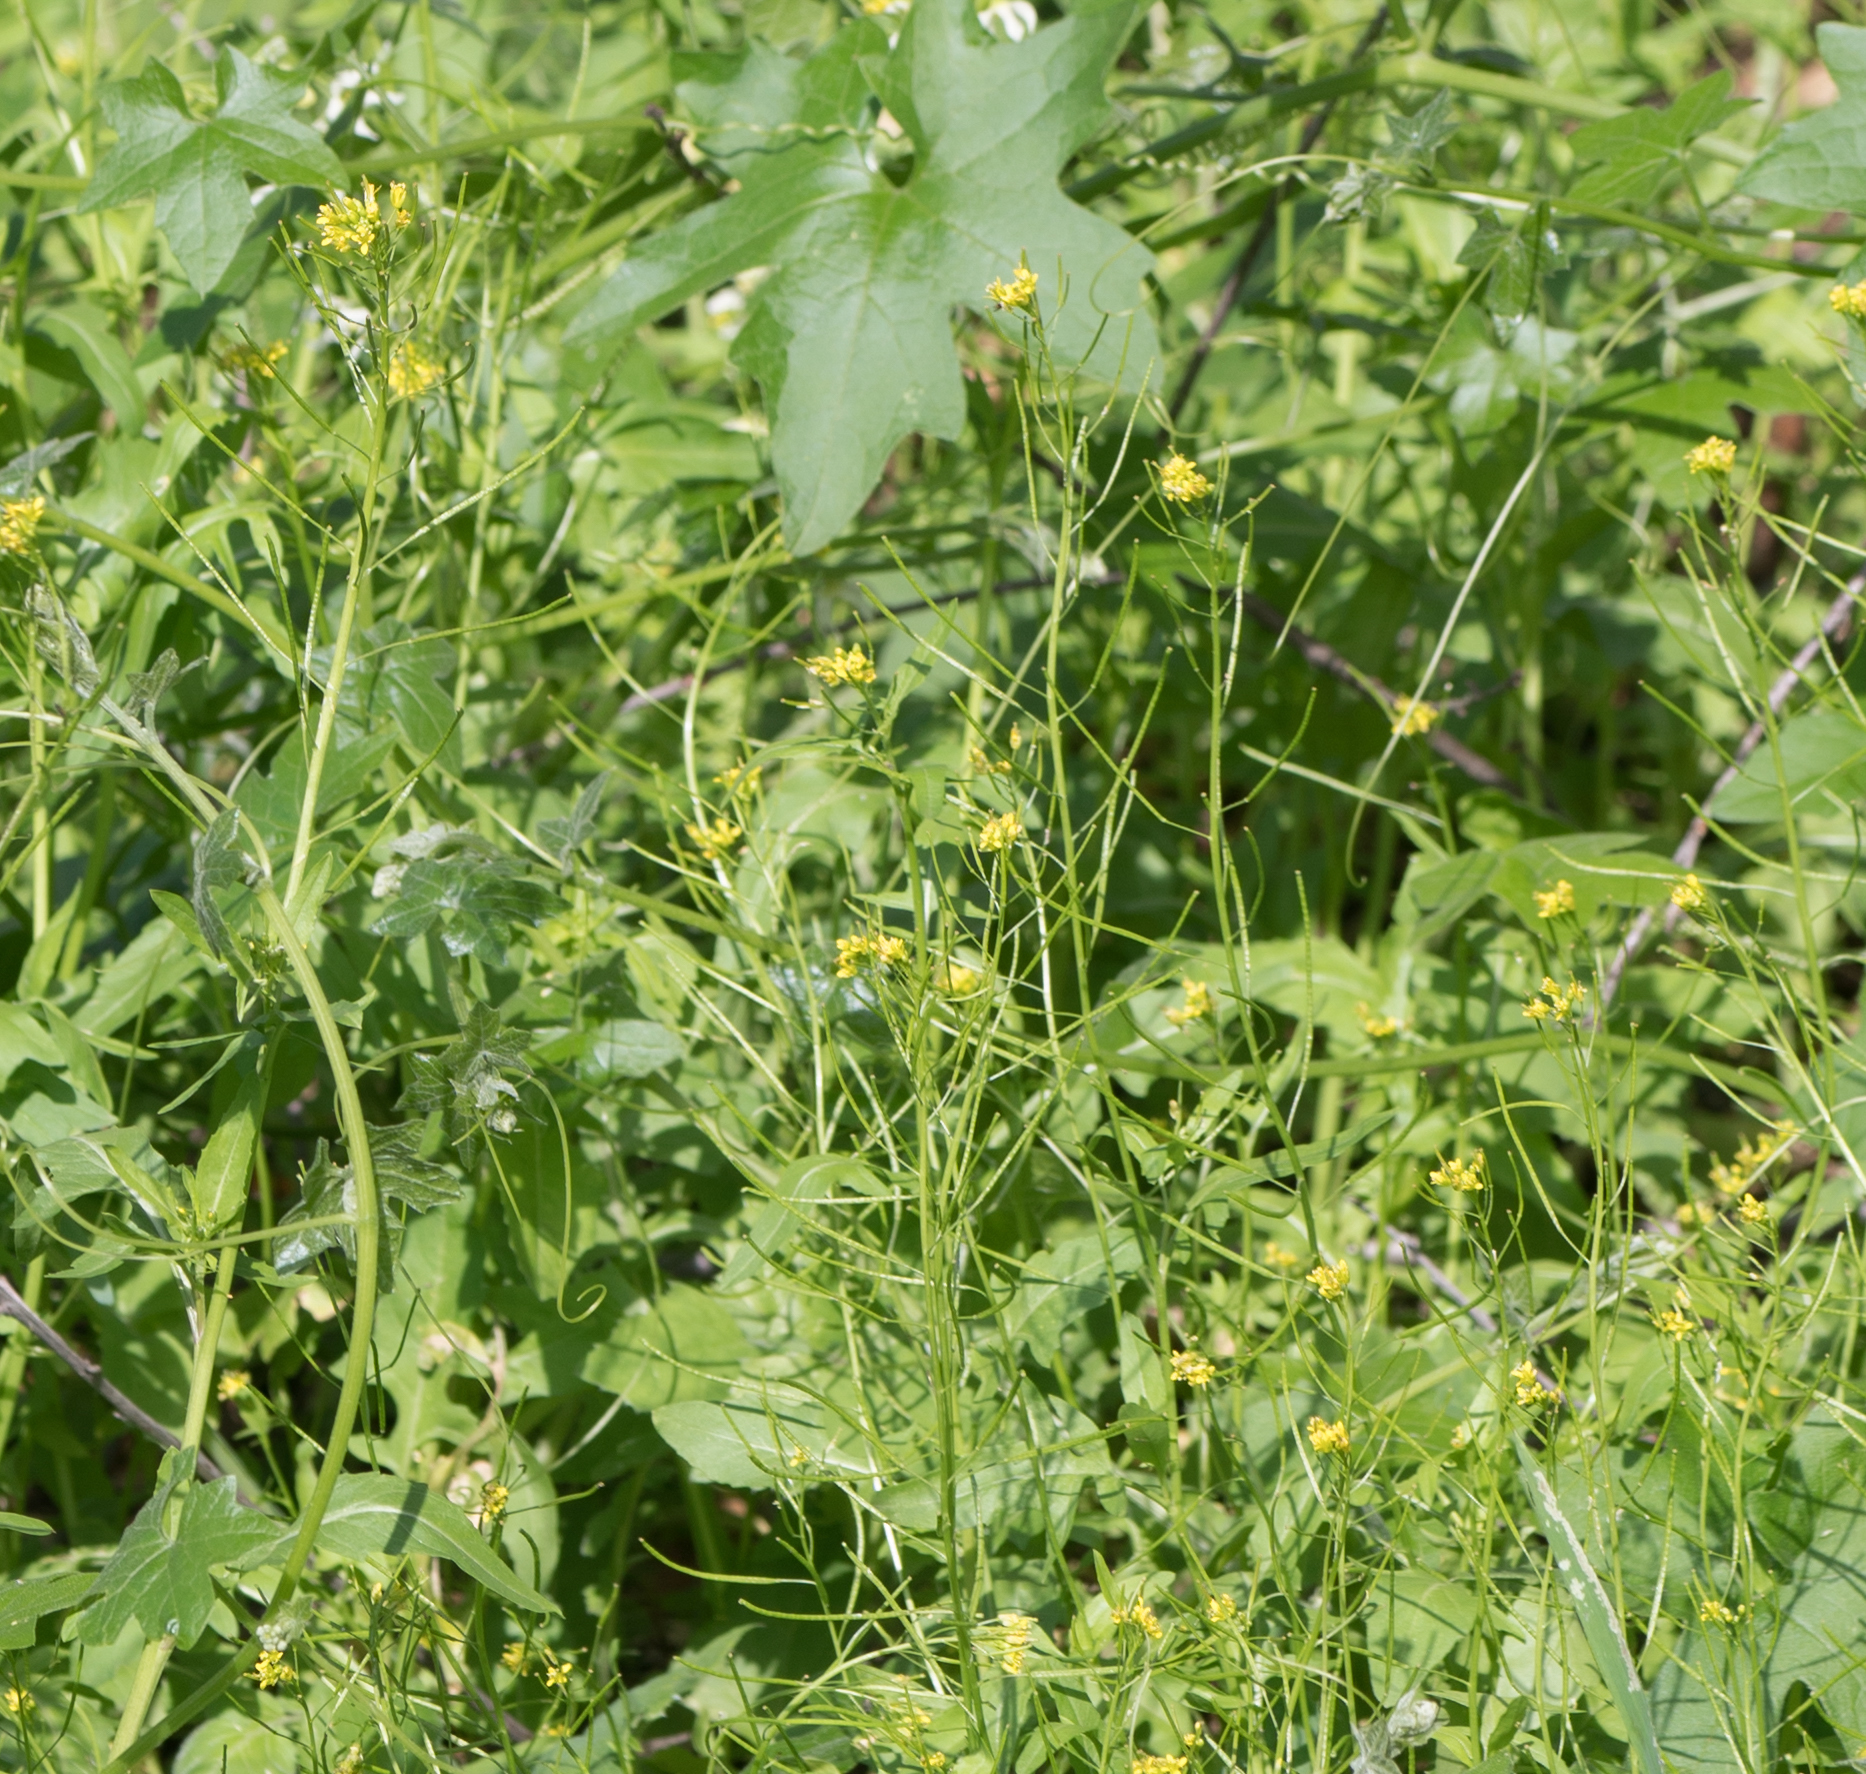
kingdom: Plantae
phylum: Tracheophyta
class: Magnoliopsida
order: Brassicales
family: Brassicaceae
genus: Sisymbrium
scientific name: Sisymbrium irio
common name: London rocket
